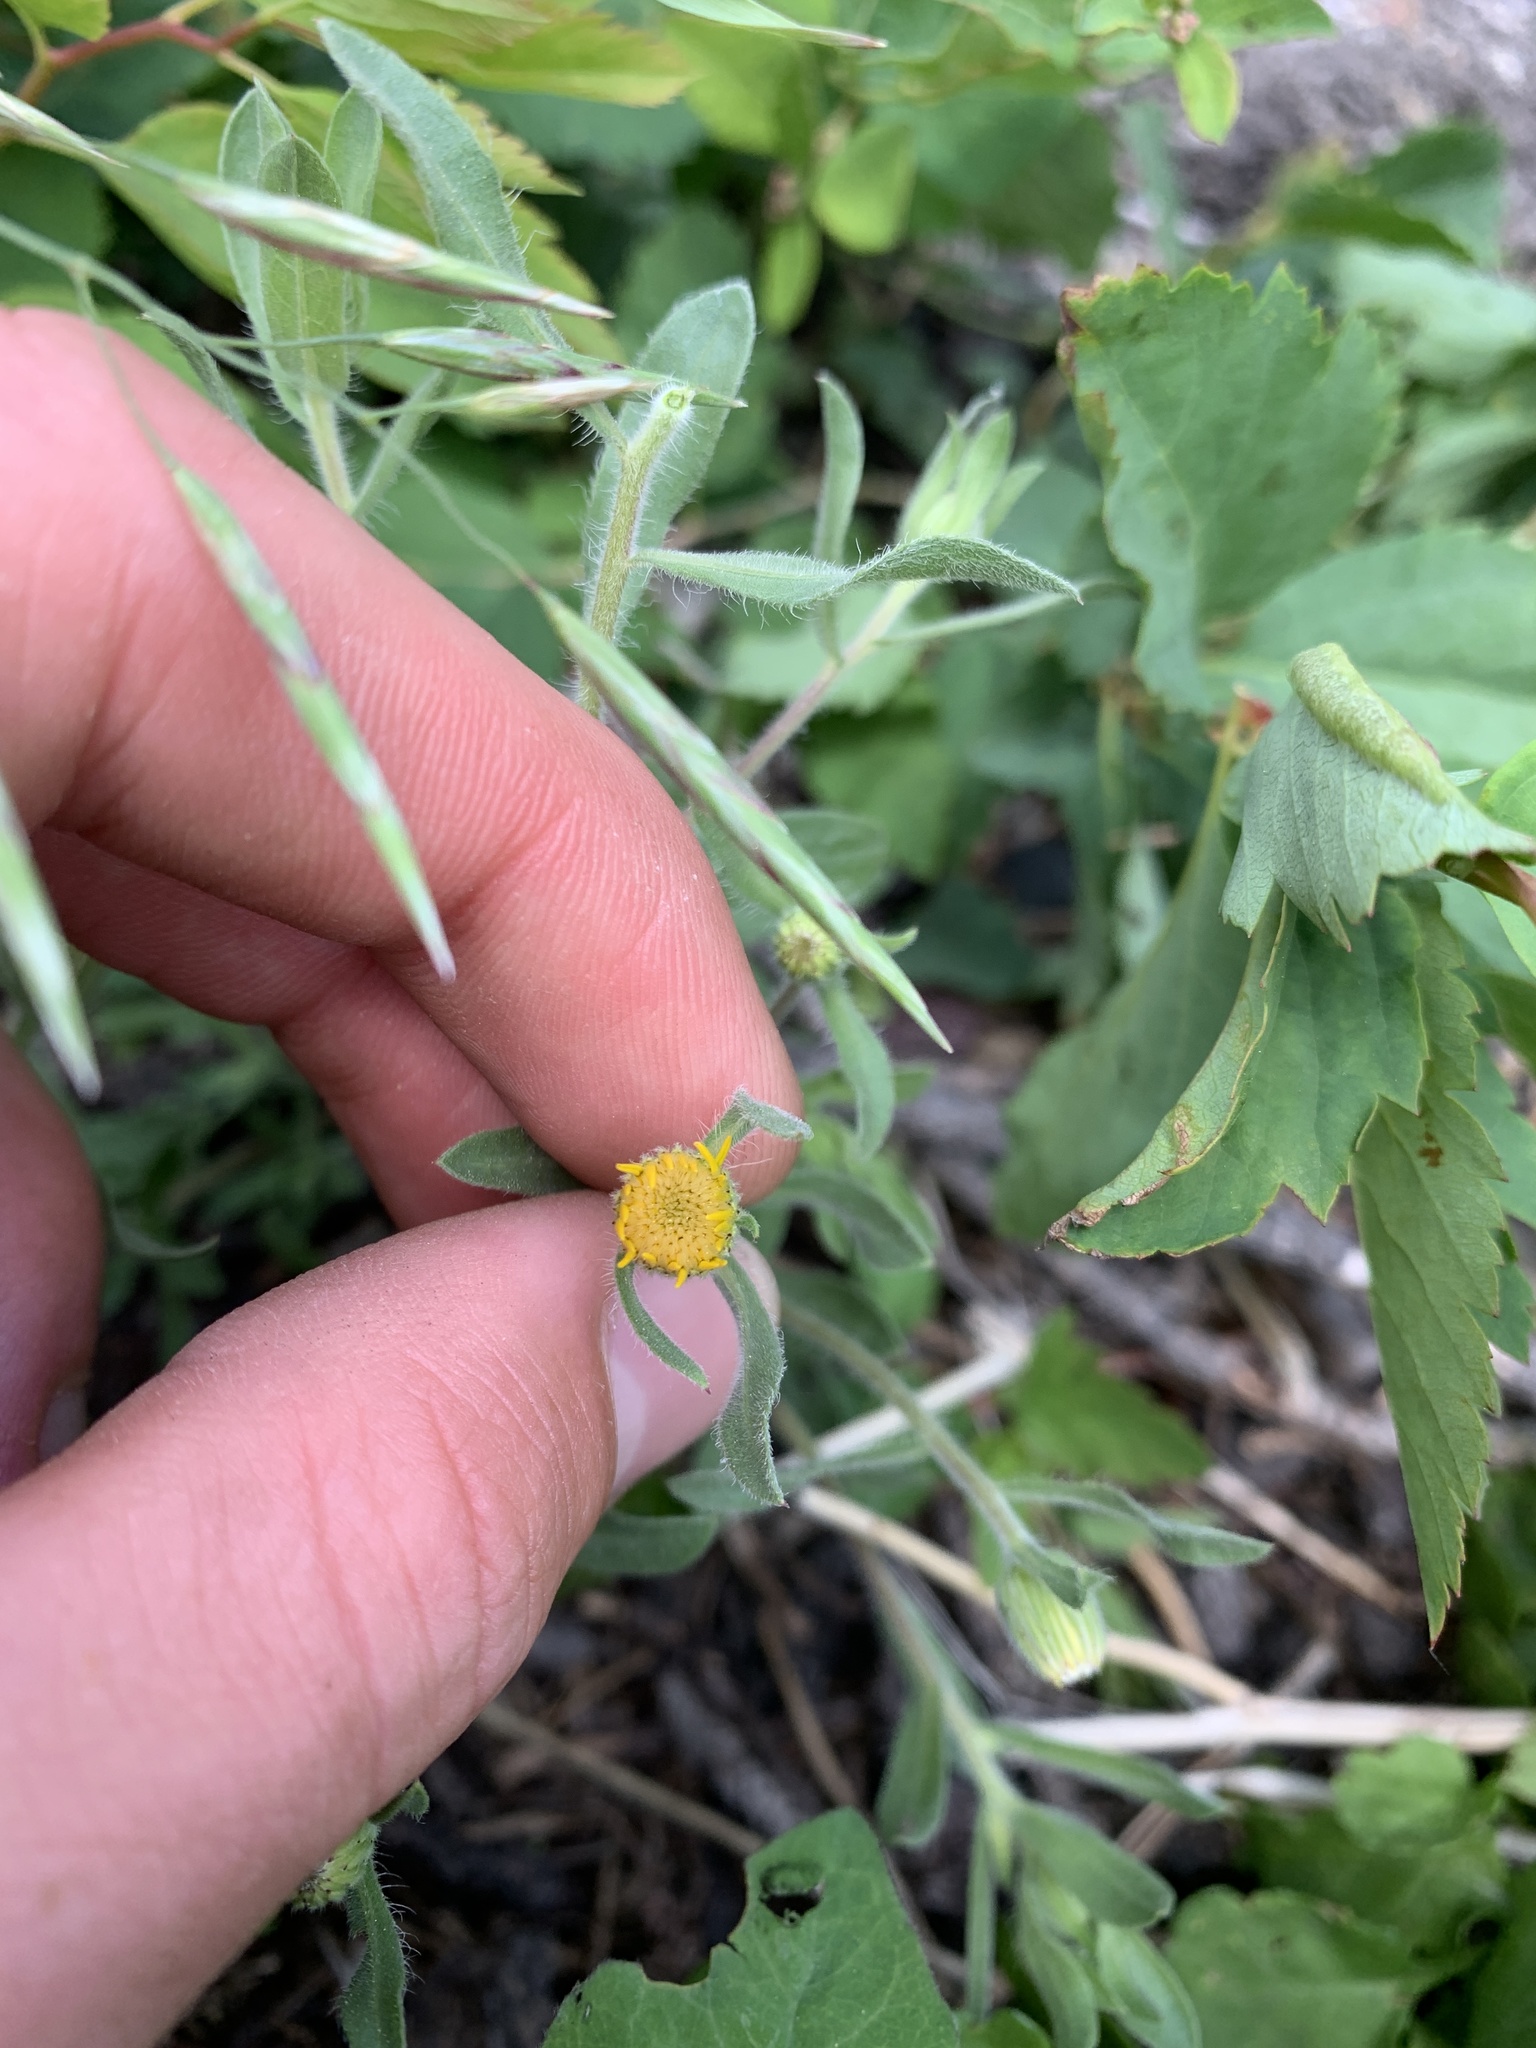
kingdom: Plantae
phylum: Tracheophyta
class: Magnoliopsida
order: Asterales
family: Asteraceae
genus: Heterotheca
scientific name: Heterotheca villosa
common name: Hairy false goldenaster
